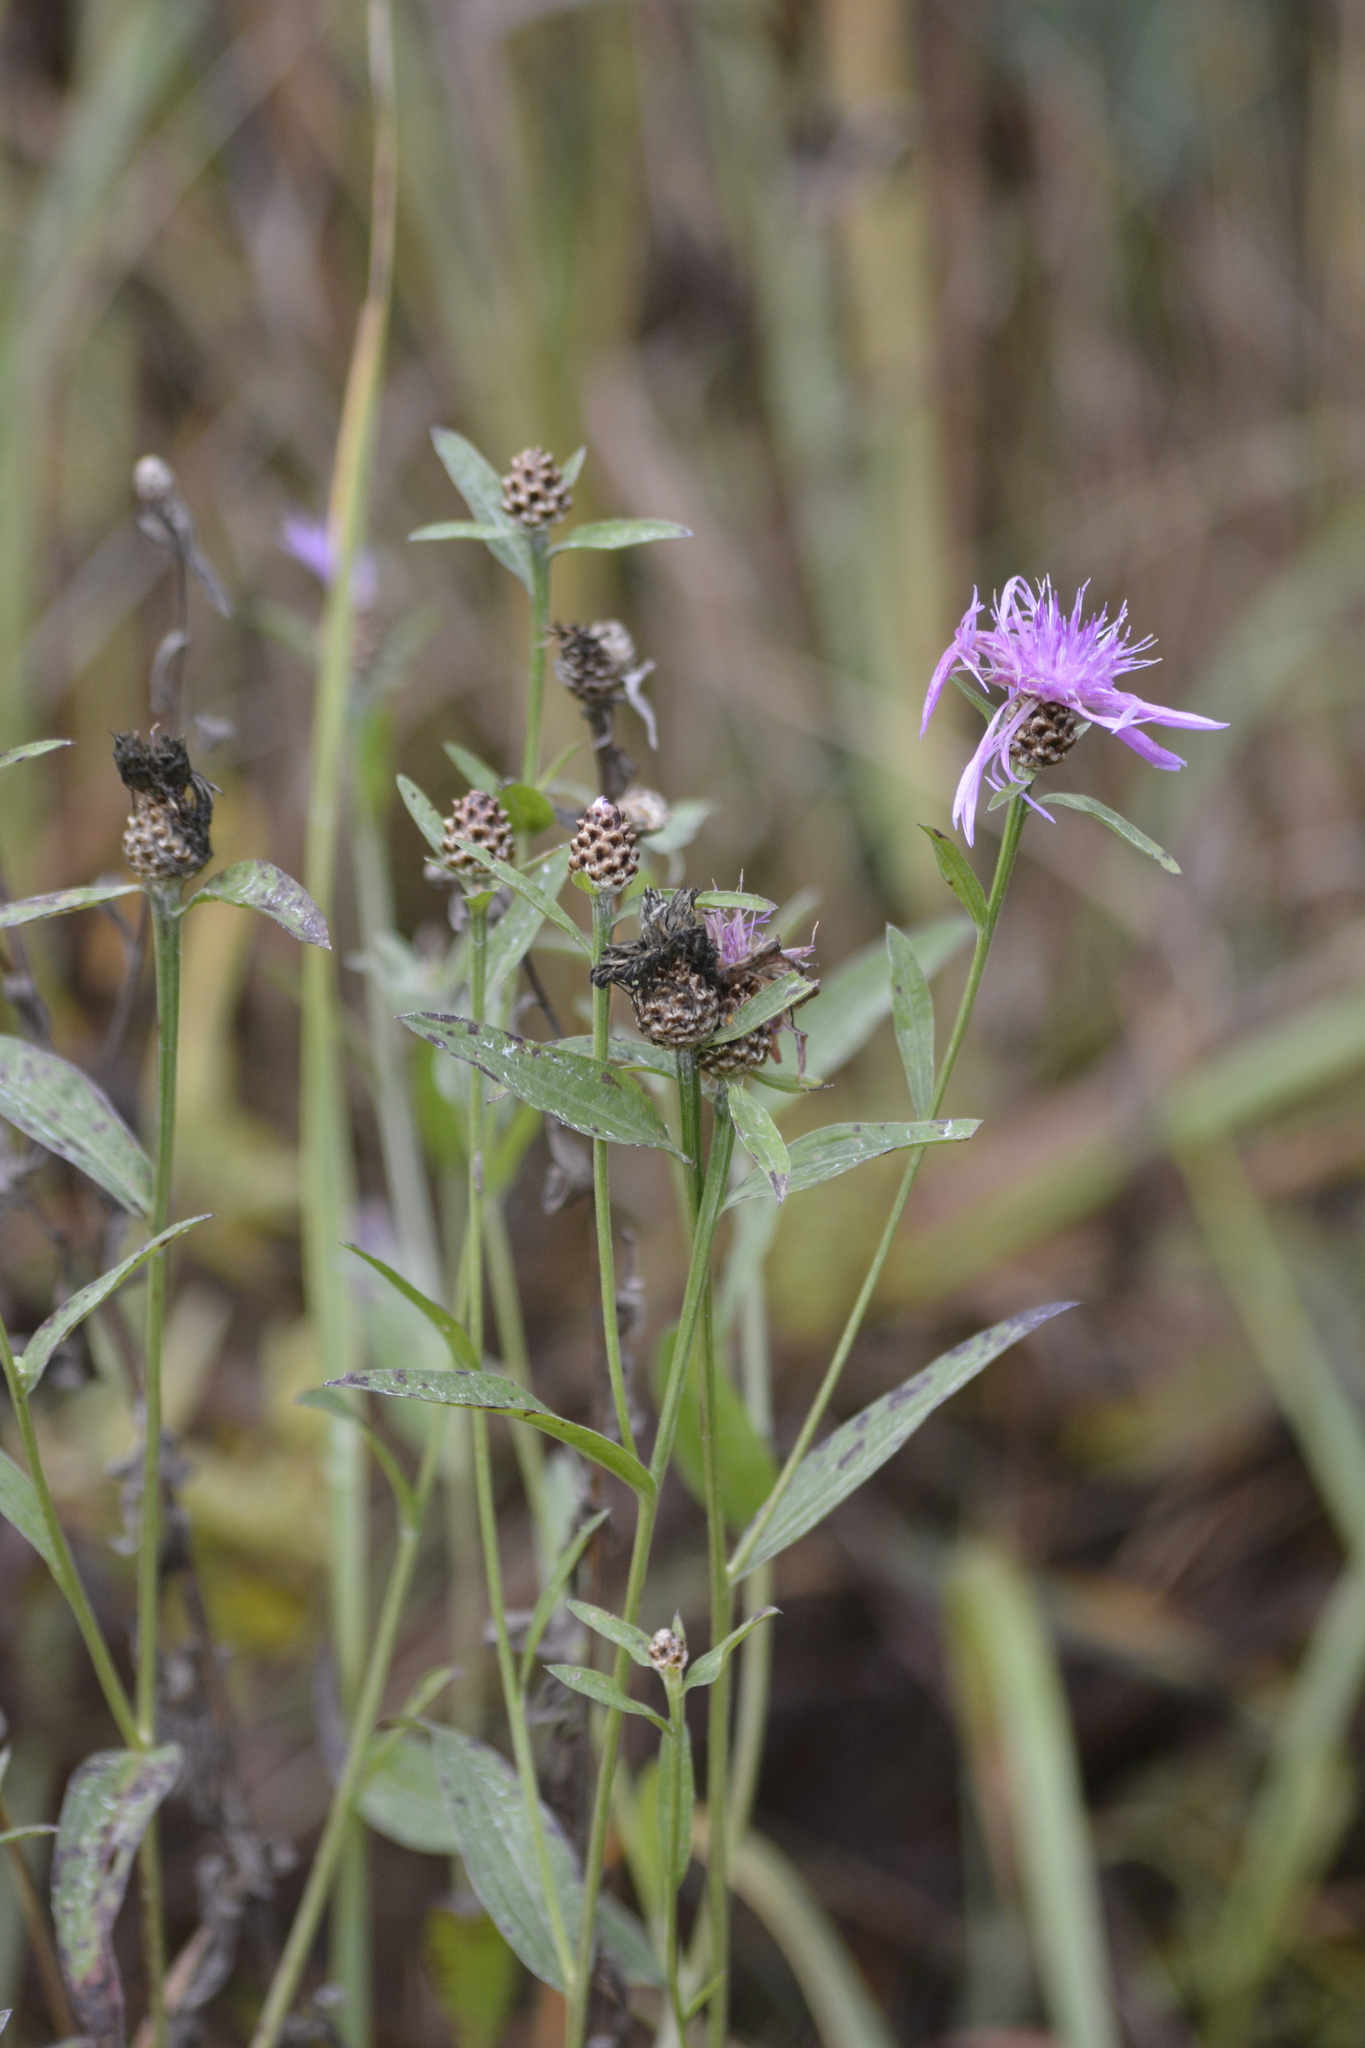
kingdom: Plantae
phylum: Tracheophyta
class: Magnoliopsida
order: Asterales
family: Asteraceae
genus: Centaurea
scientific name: Centaurea jacea
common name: Brown knapweed
